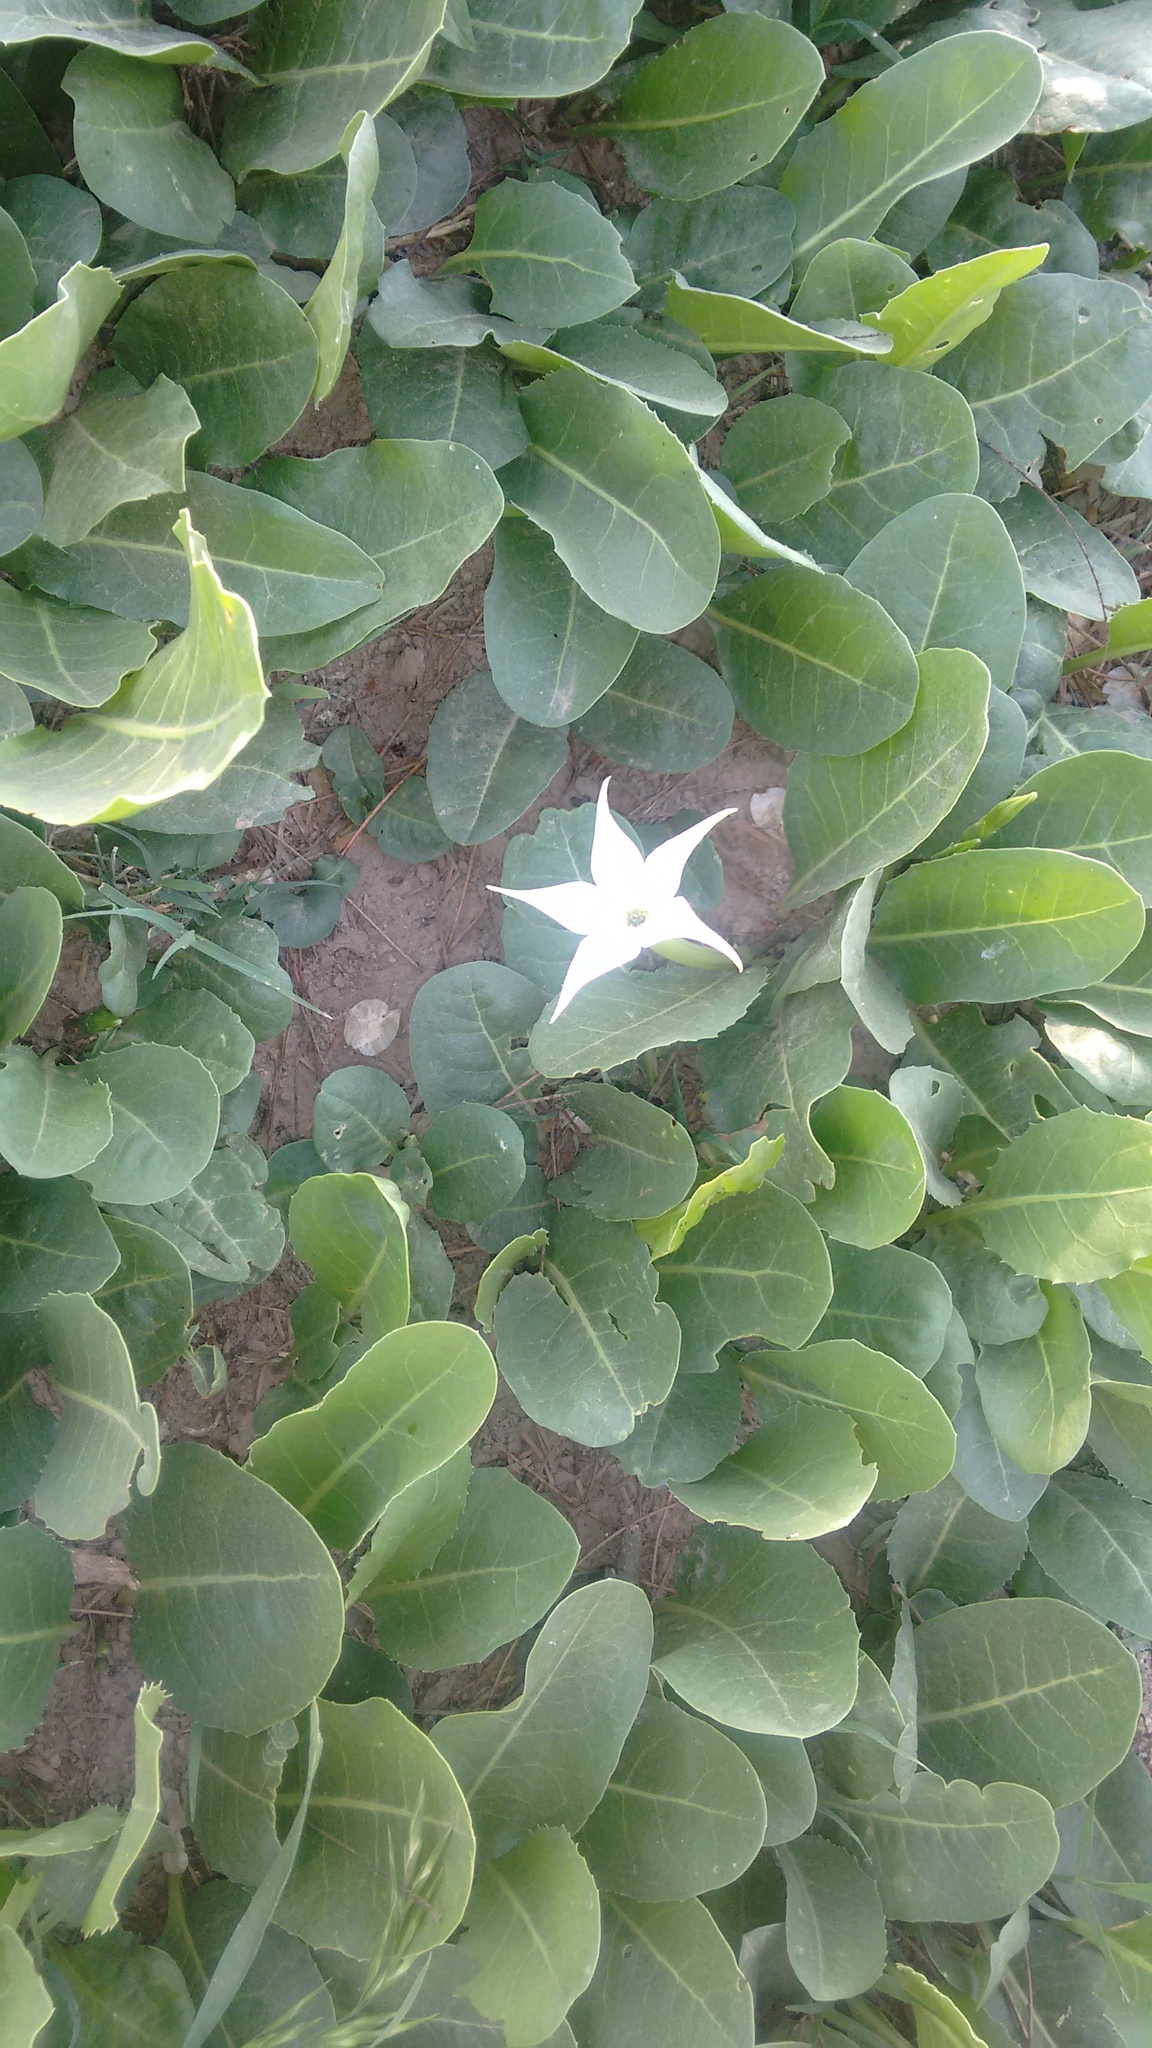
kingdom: Plantae
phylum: Tracheophyta
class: Magnoliopsida
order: Solanales
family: Solanaceae
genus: Jaborosa
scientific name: Jaborosa integrifolia
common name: Springblossom
